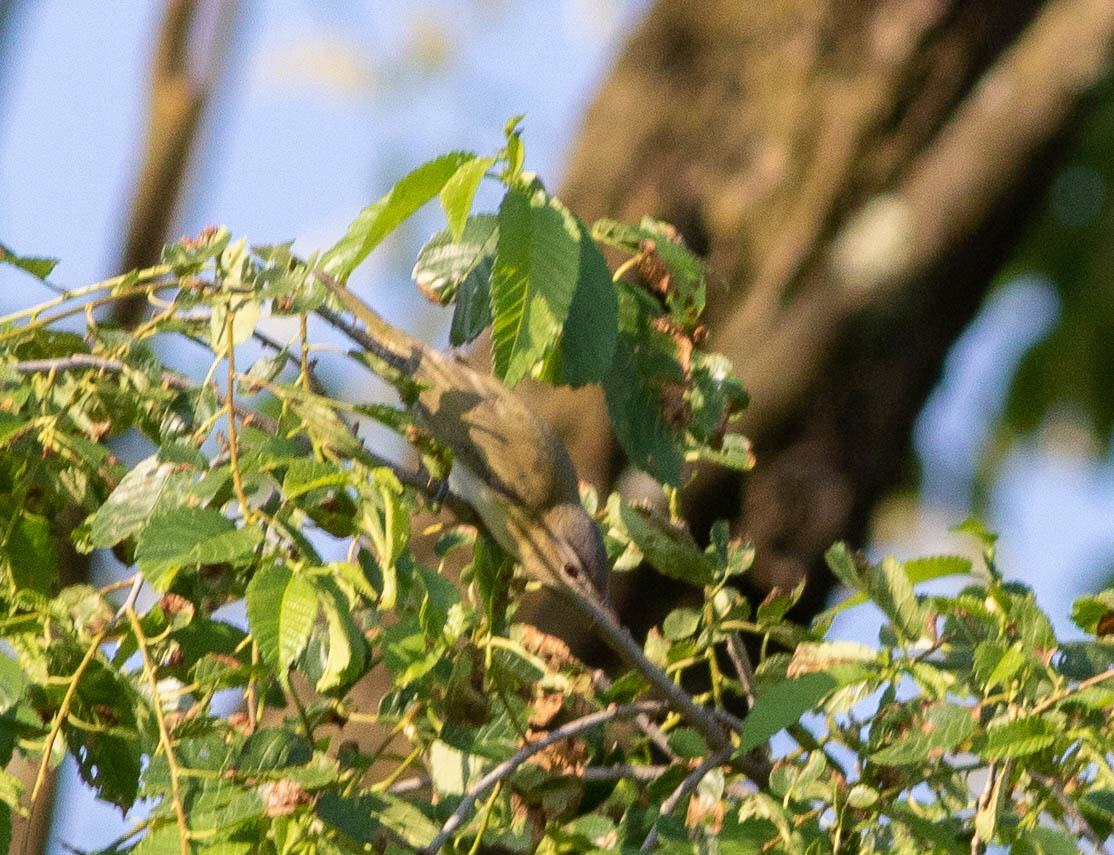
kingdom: Animalia
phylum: Chordata
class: Aves
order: Passeriformes
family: Vireonidae
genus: Vireo
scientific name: Vireo olivaceus
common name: Red-eyed vireo
